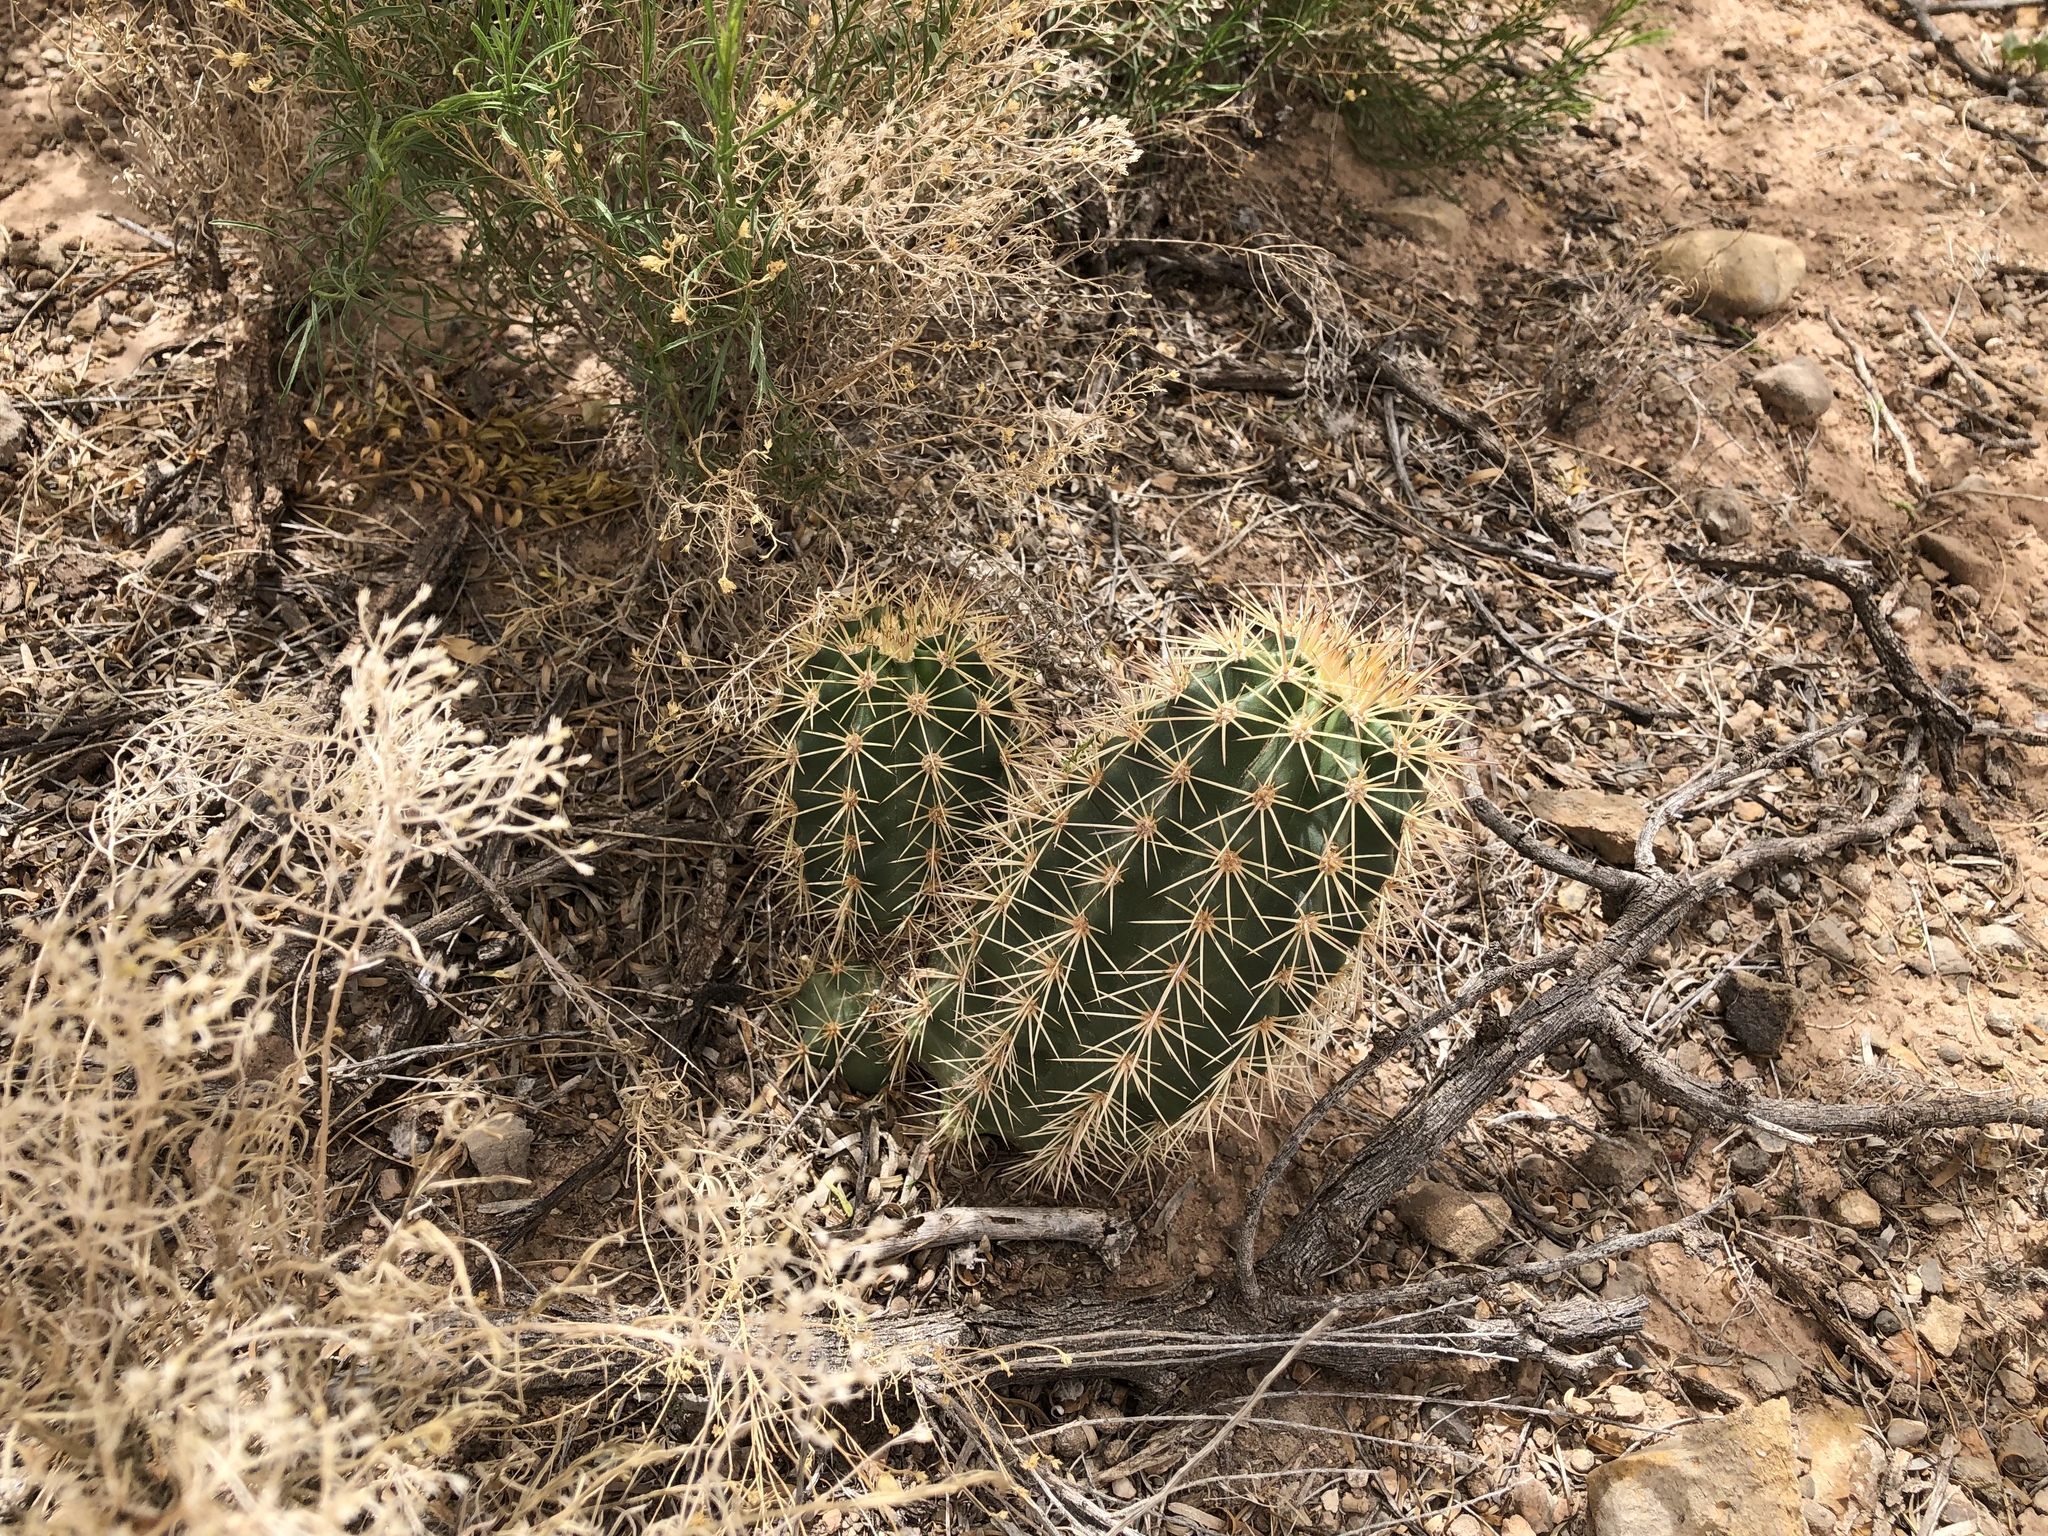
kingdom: Plantae
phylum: Tracheophyta
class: Magnoliopsida
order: Caryophyllales
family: Cactaceae
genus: Echinocereus
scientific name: Echinocereus coccineus
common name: Scarlet hedgehog cactus
